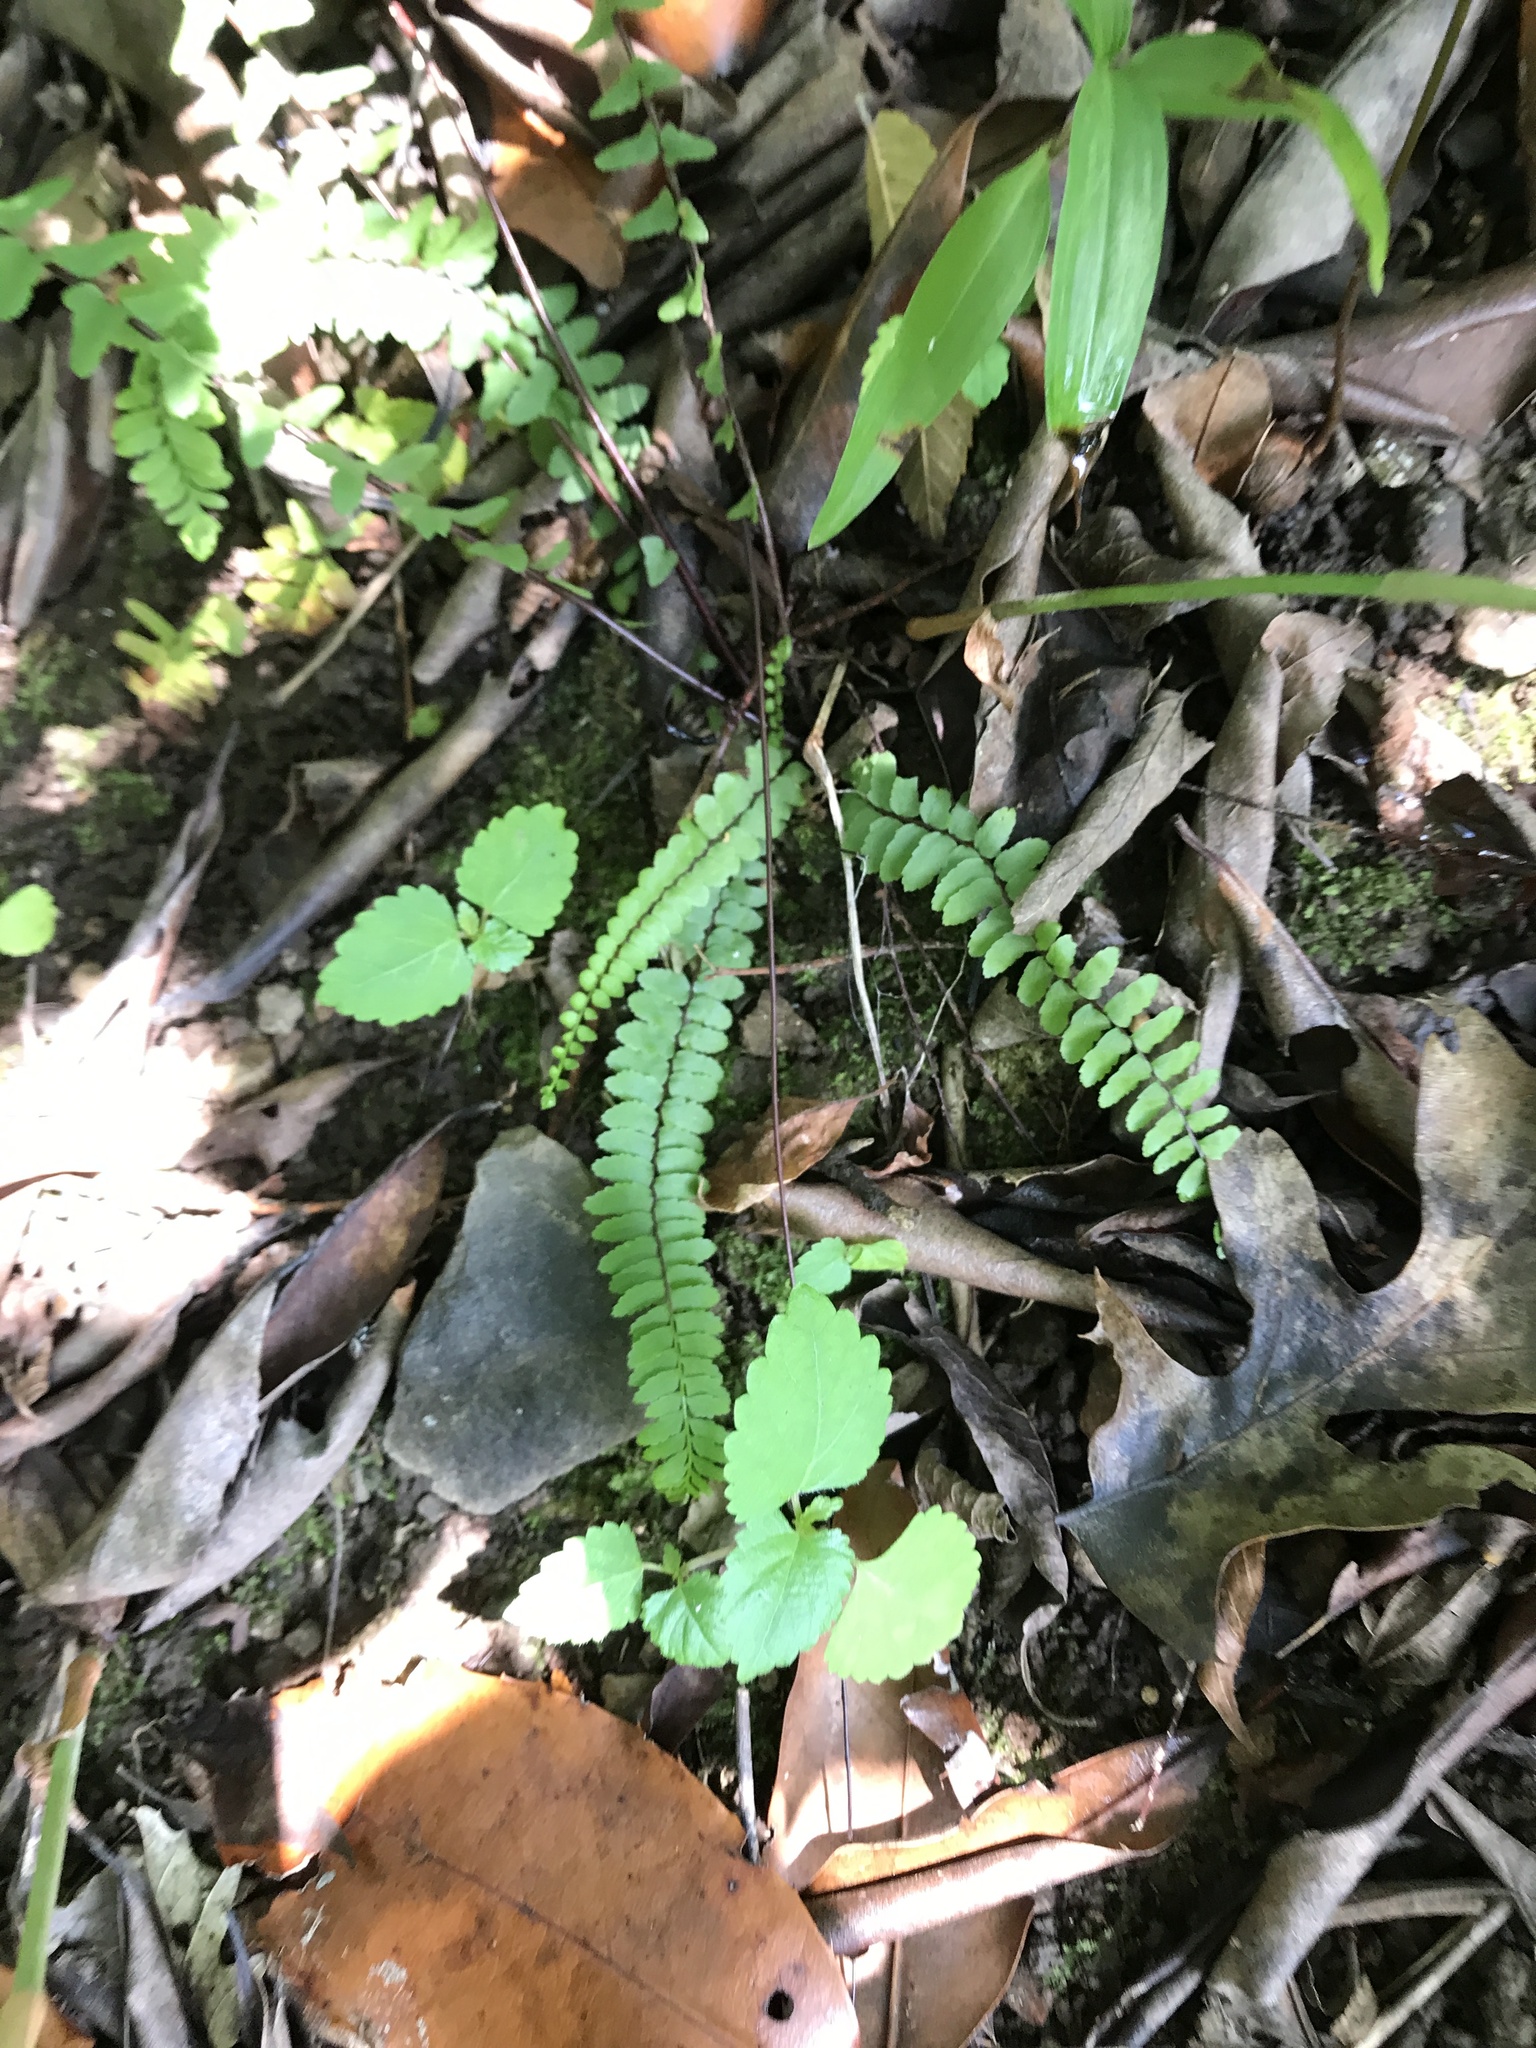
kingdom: Plantae
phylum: Tracheophyta
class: Polypodiopsida
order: Polypodiales
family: Aspleniaceae
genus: Asplenium
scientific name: Asplenium platyneuron
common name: Ebony spleenwort
